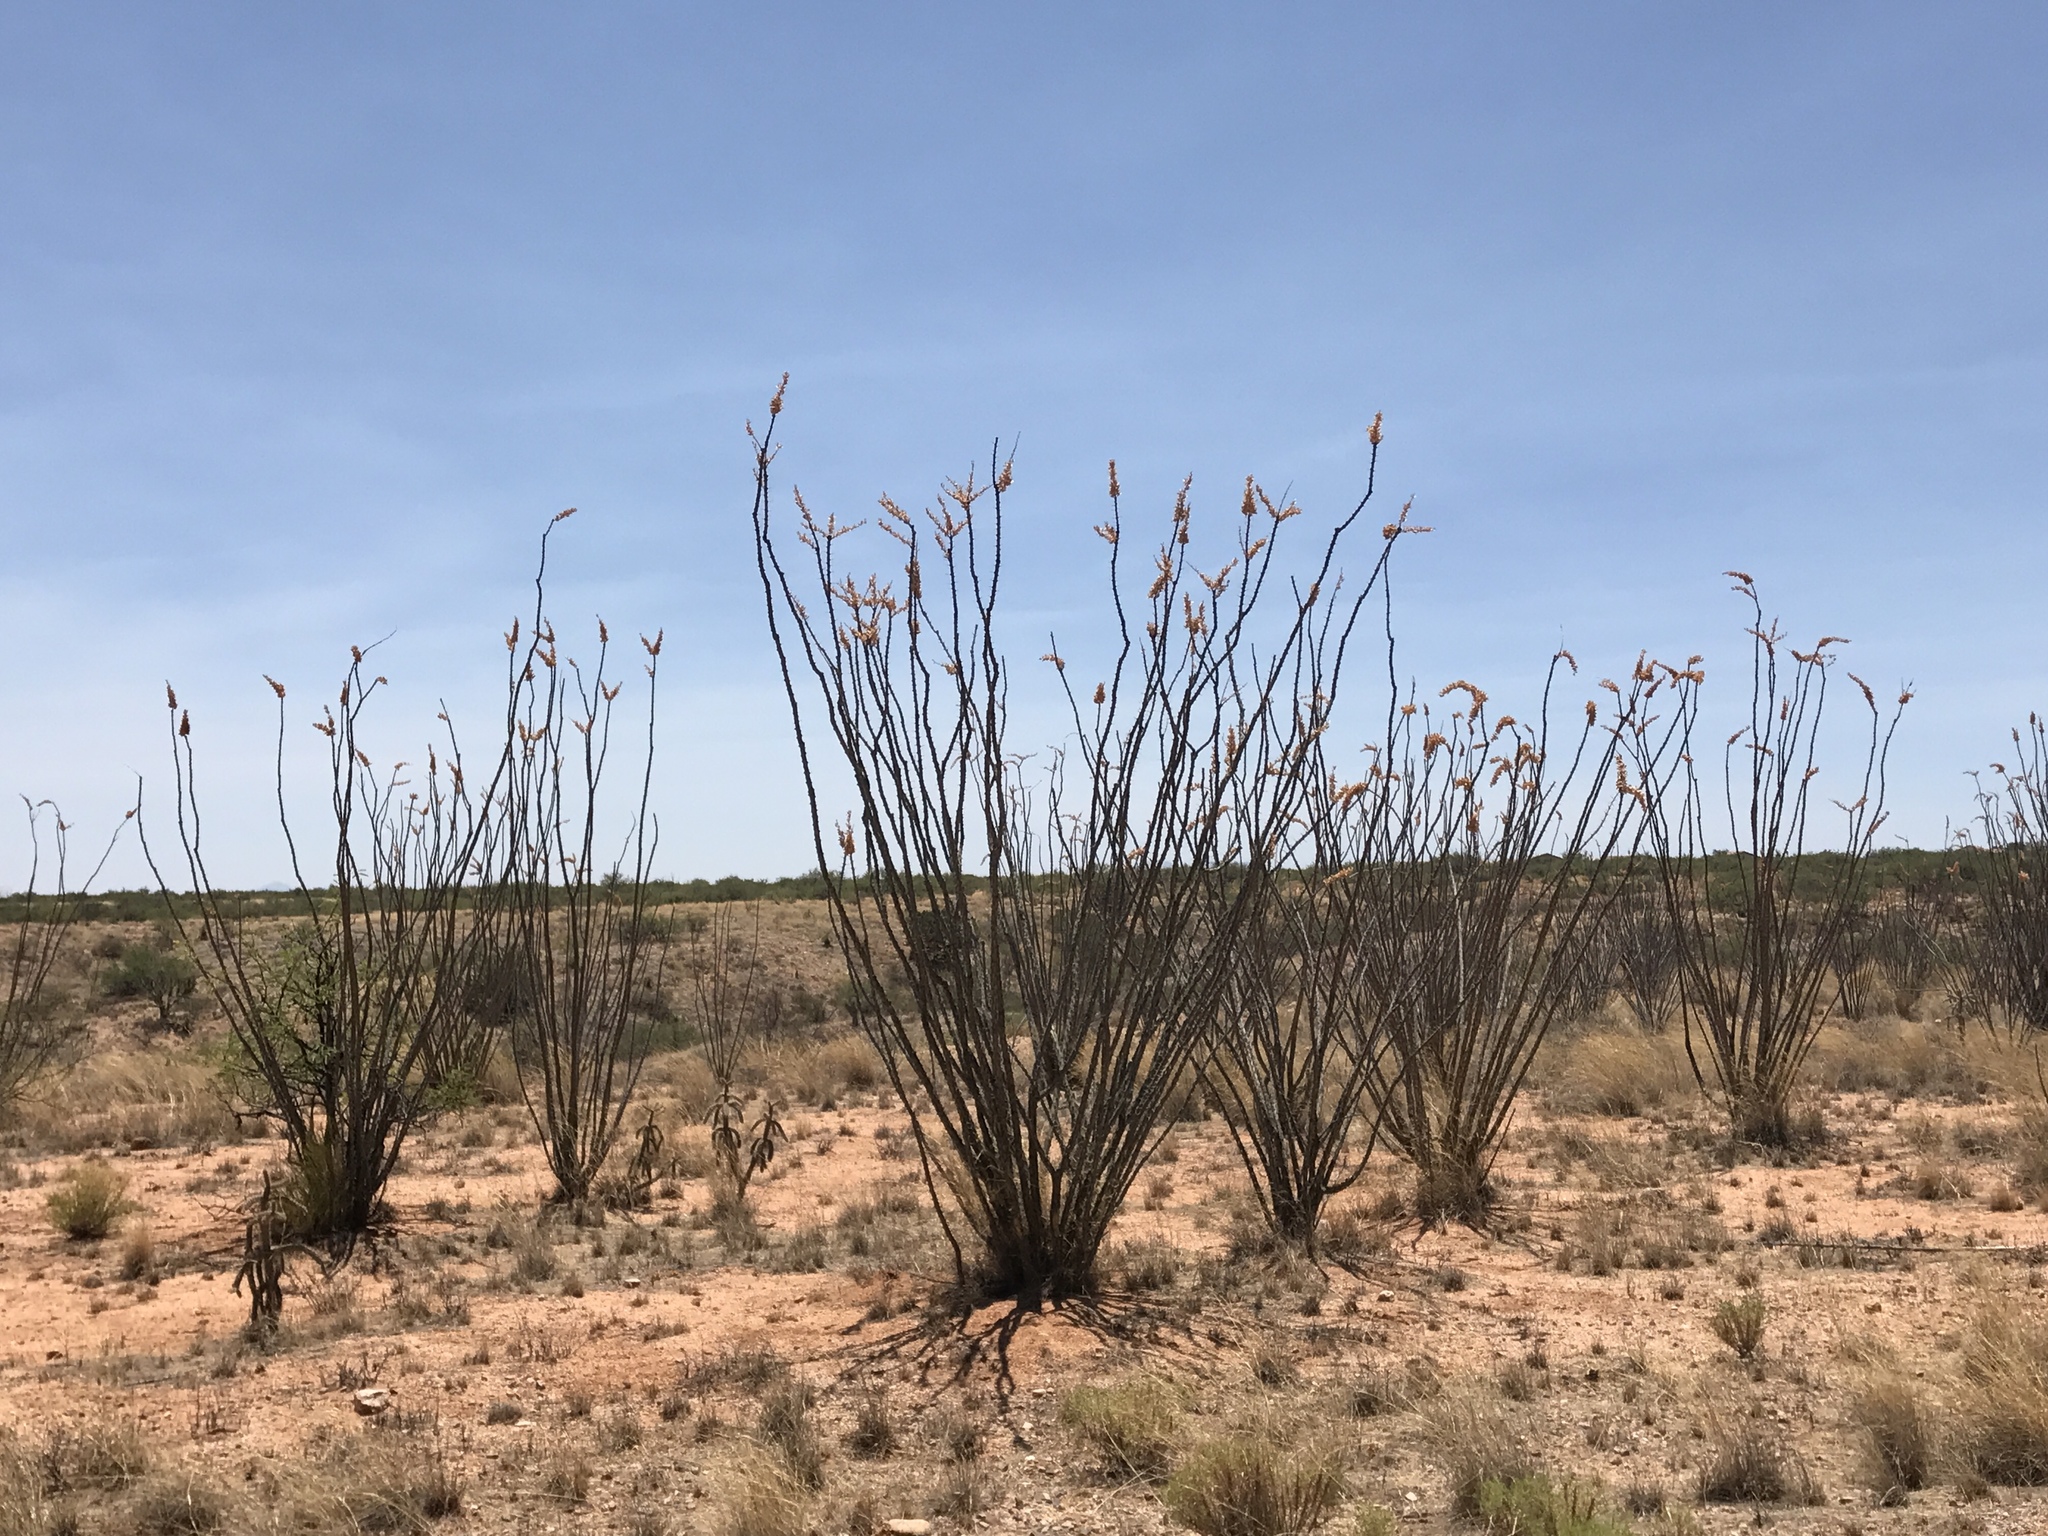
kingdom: Plantae
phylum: Tracheophyta
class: Magnoliopsida
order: Ericales
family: Fouquieriaceae
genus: Fouquieria
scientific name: Fouquieria splendens
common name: Vine-cactus
